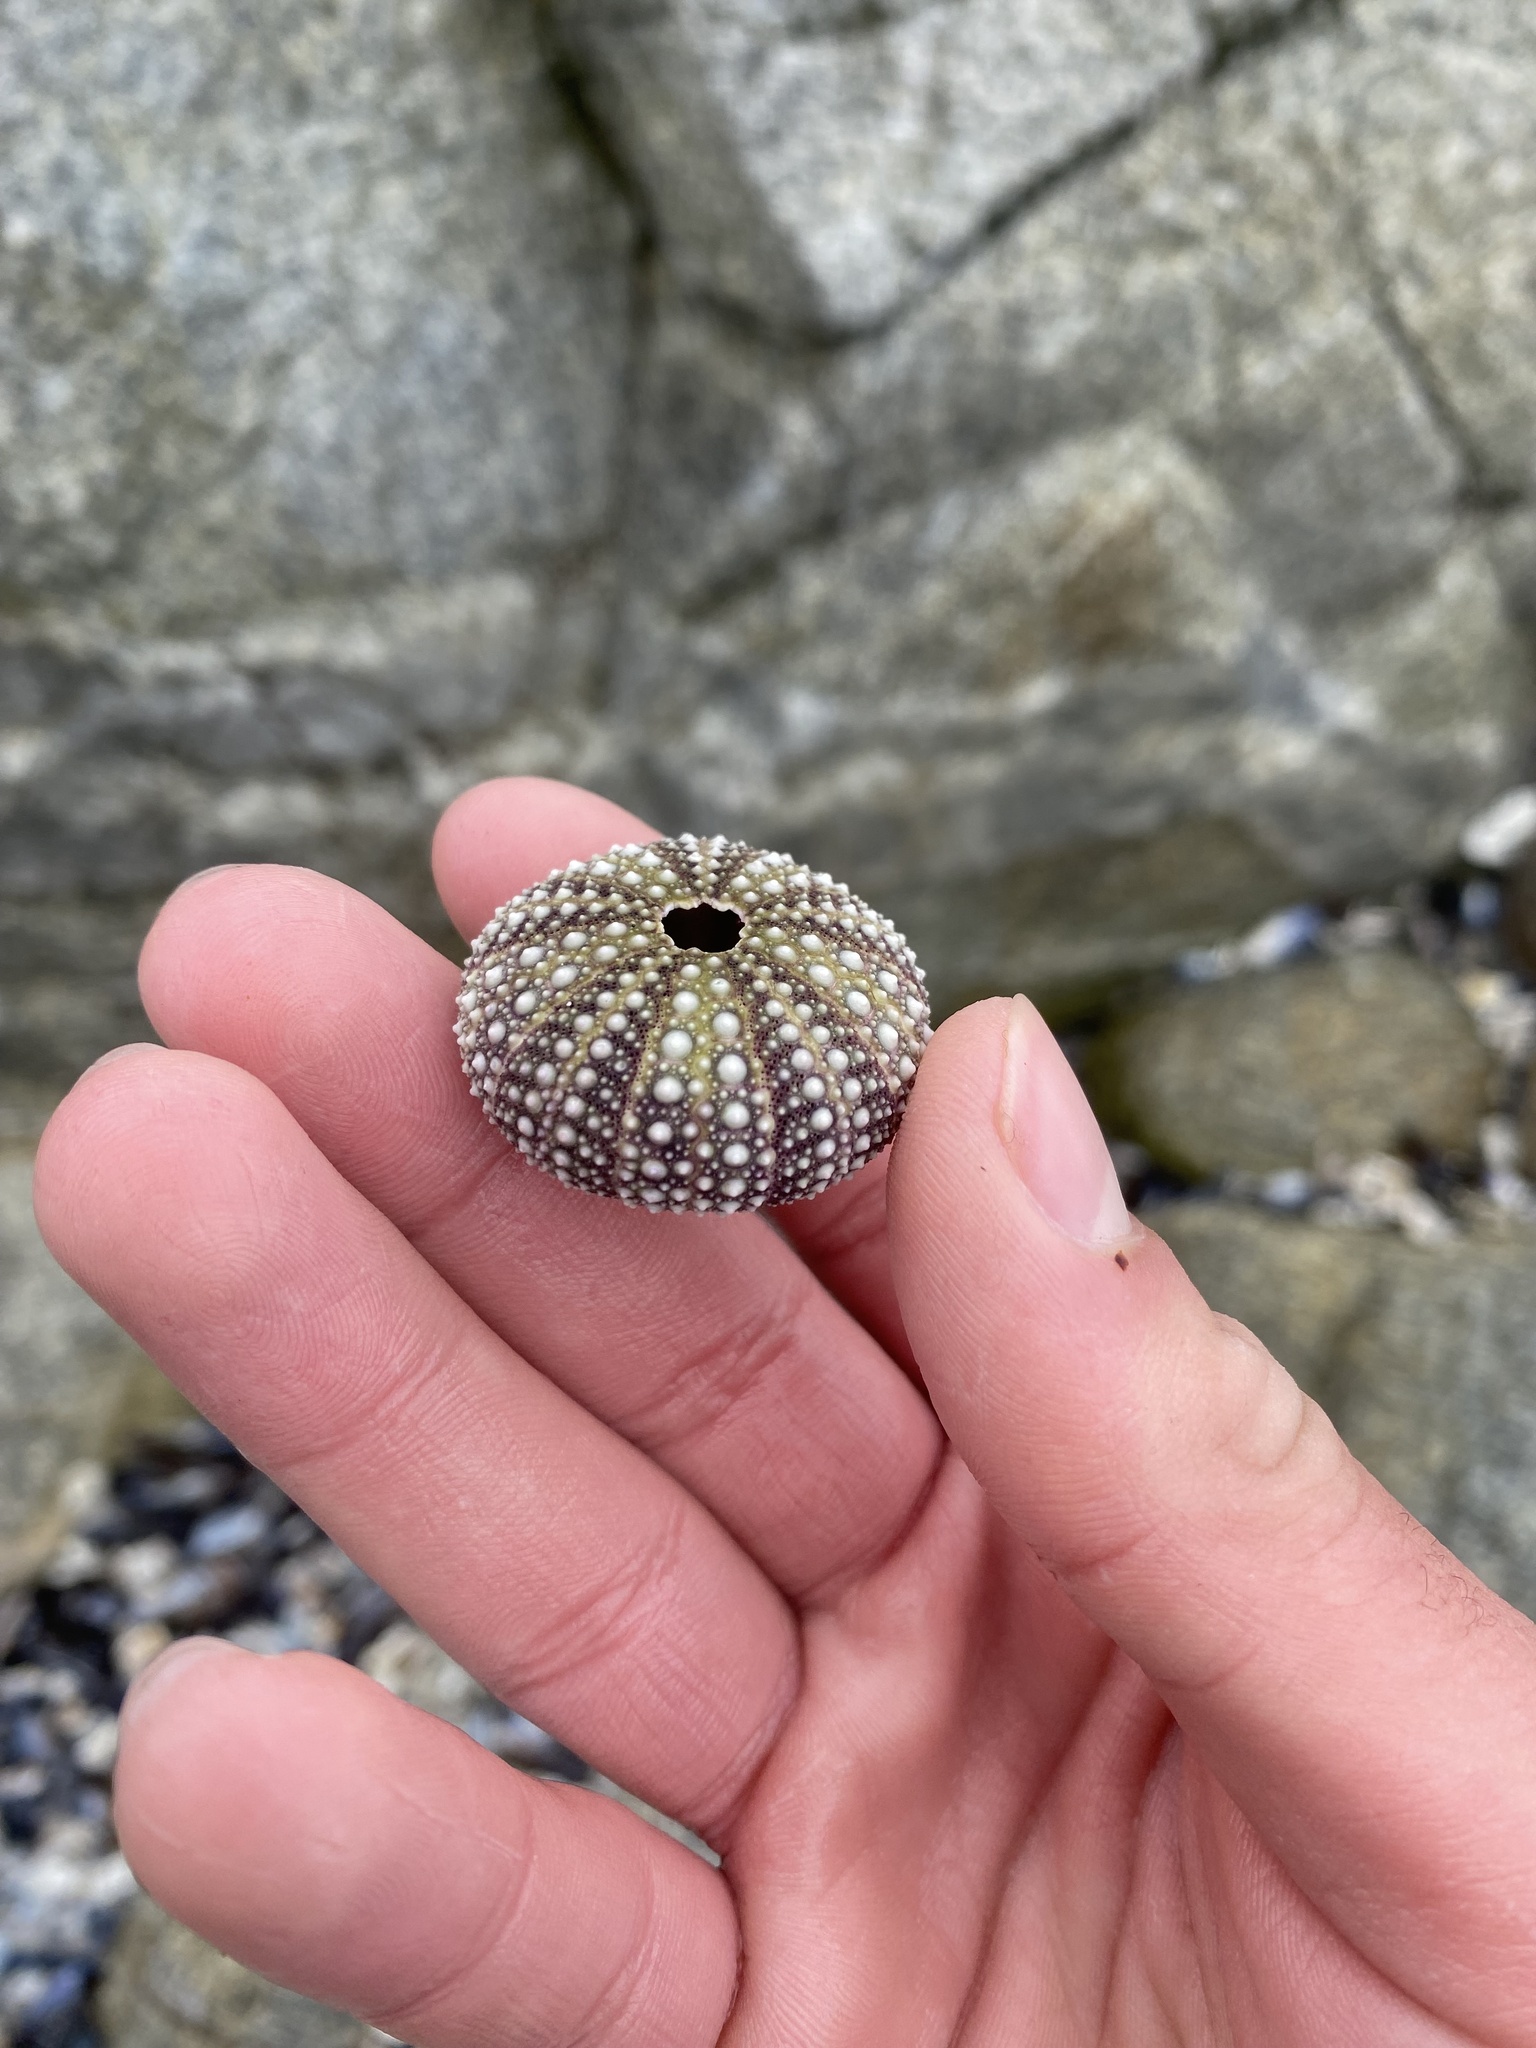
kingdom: Animalia
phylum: Echinodermata
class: Echinoidea
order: Camarodonta
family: Strongylocentrotidae
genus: Strongylocentrotus
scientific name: Strongylocentrotus purpuratus
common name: Purple sea urchin
